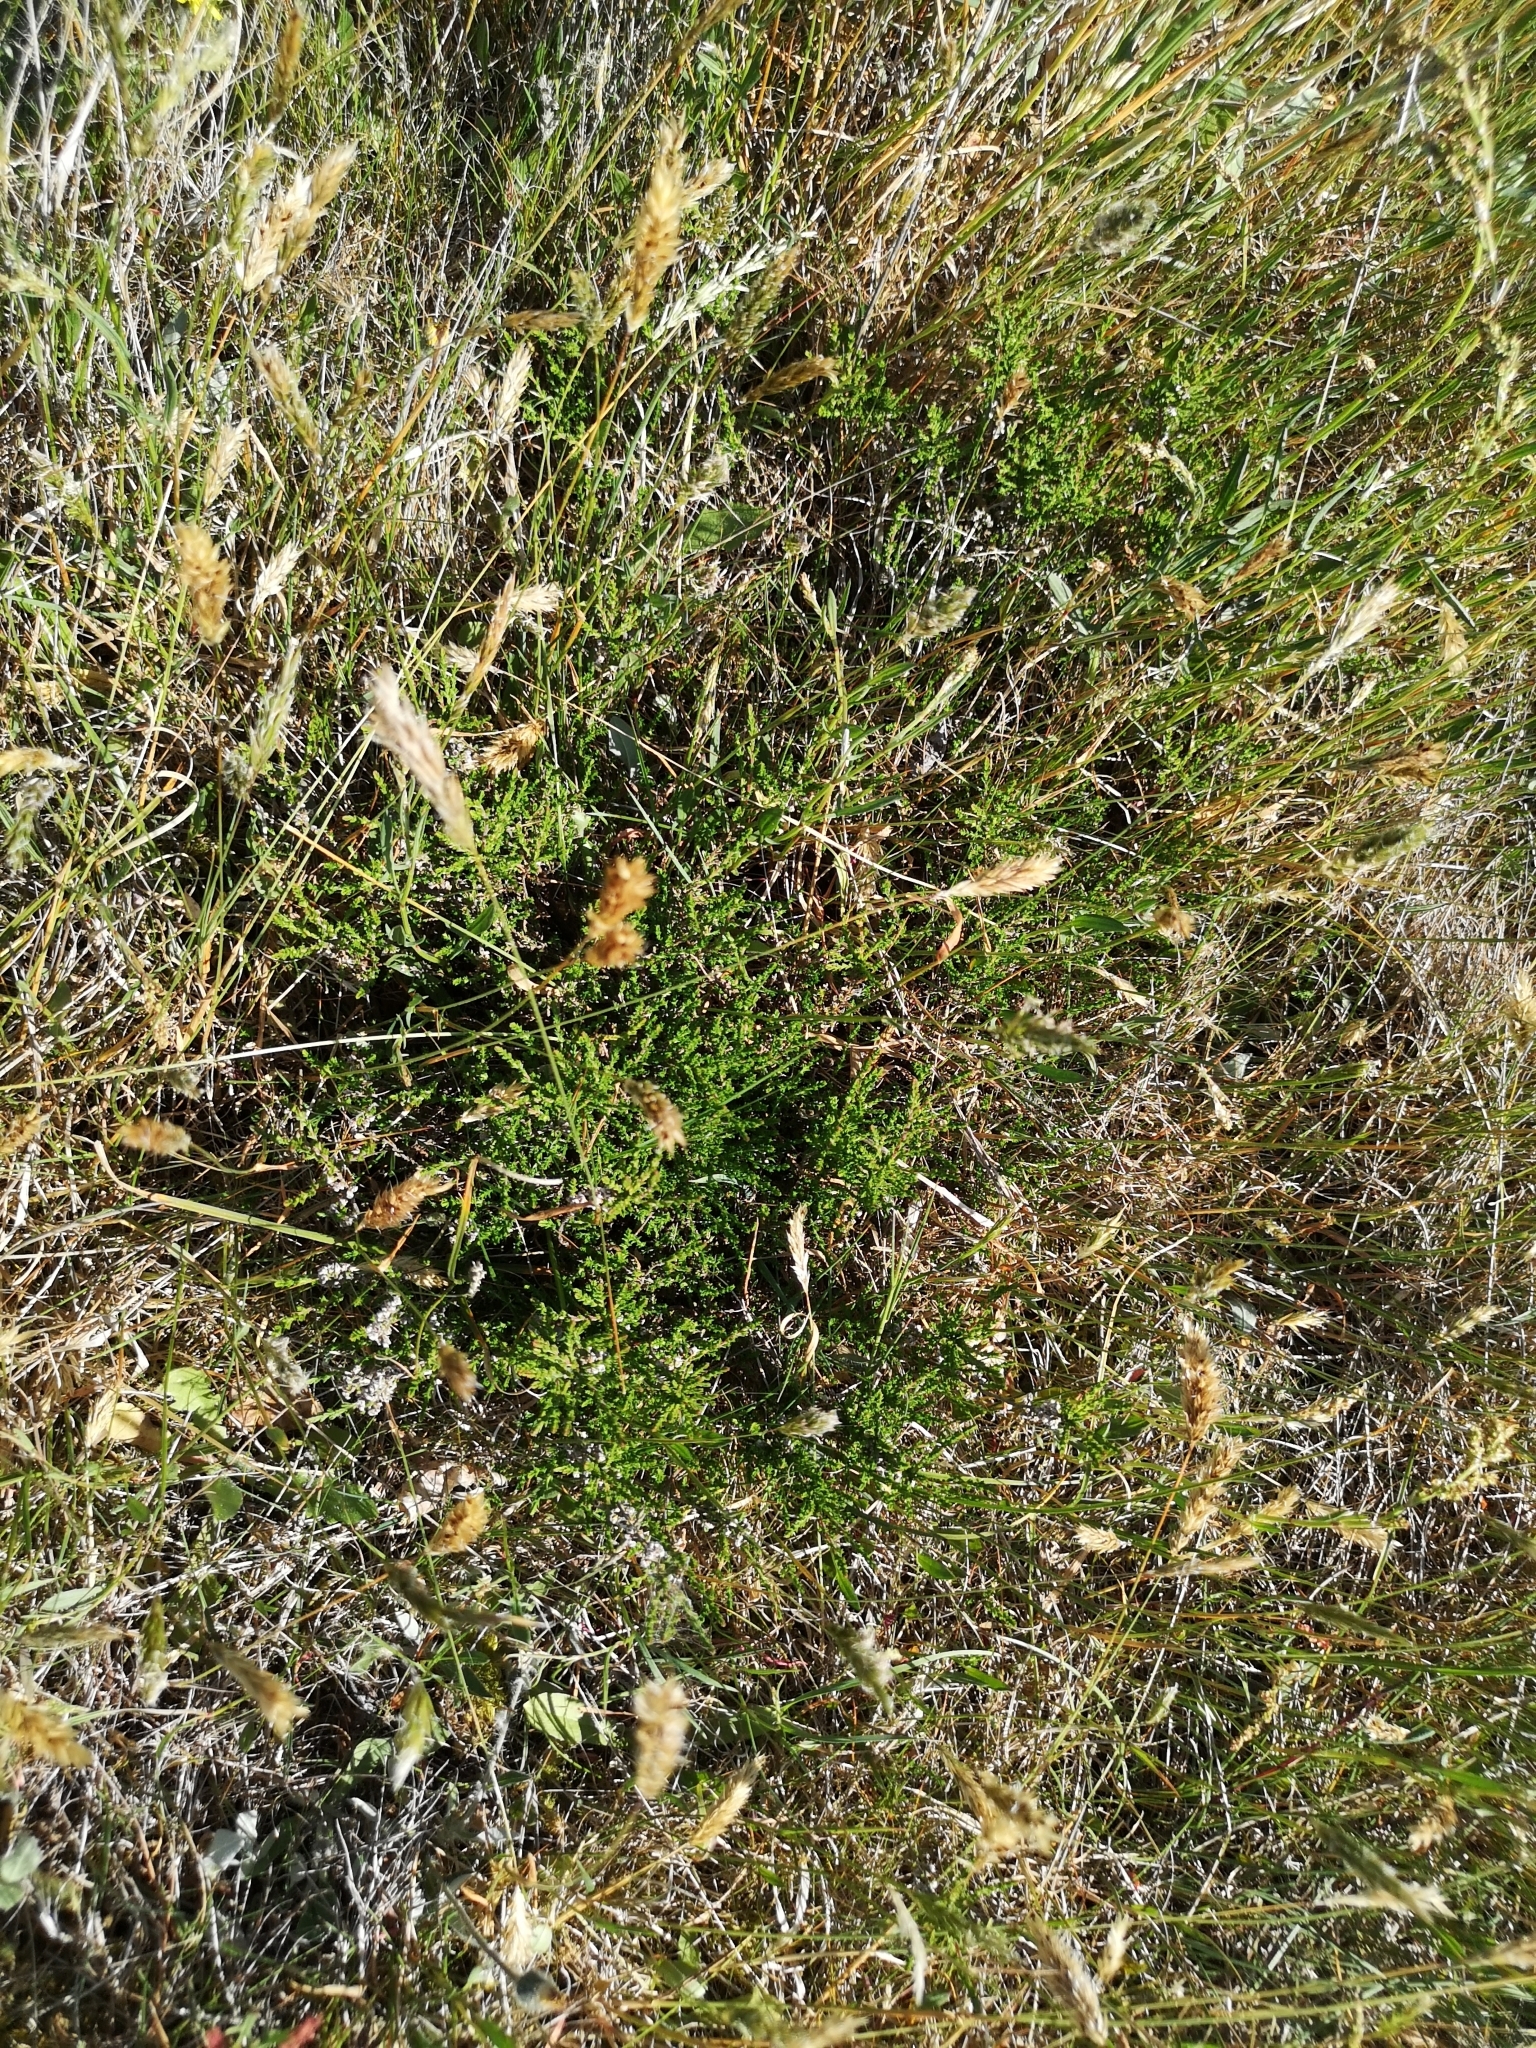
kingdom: Plantae
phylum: Tracheophyta
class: Magnoliopsida
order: Ericales
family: Ericaceae
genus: Calluna
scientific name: Calluna vulgaris
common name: Heather
